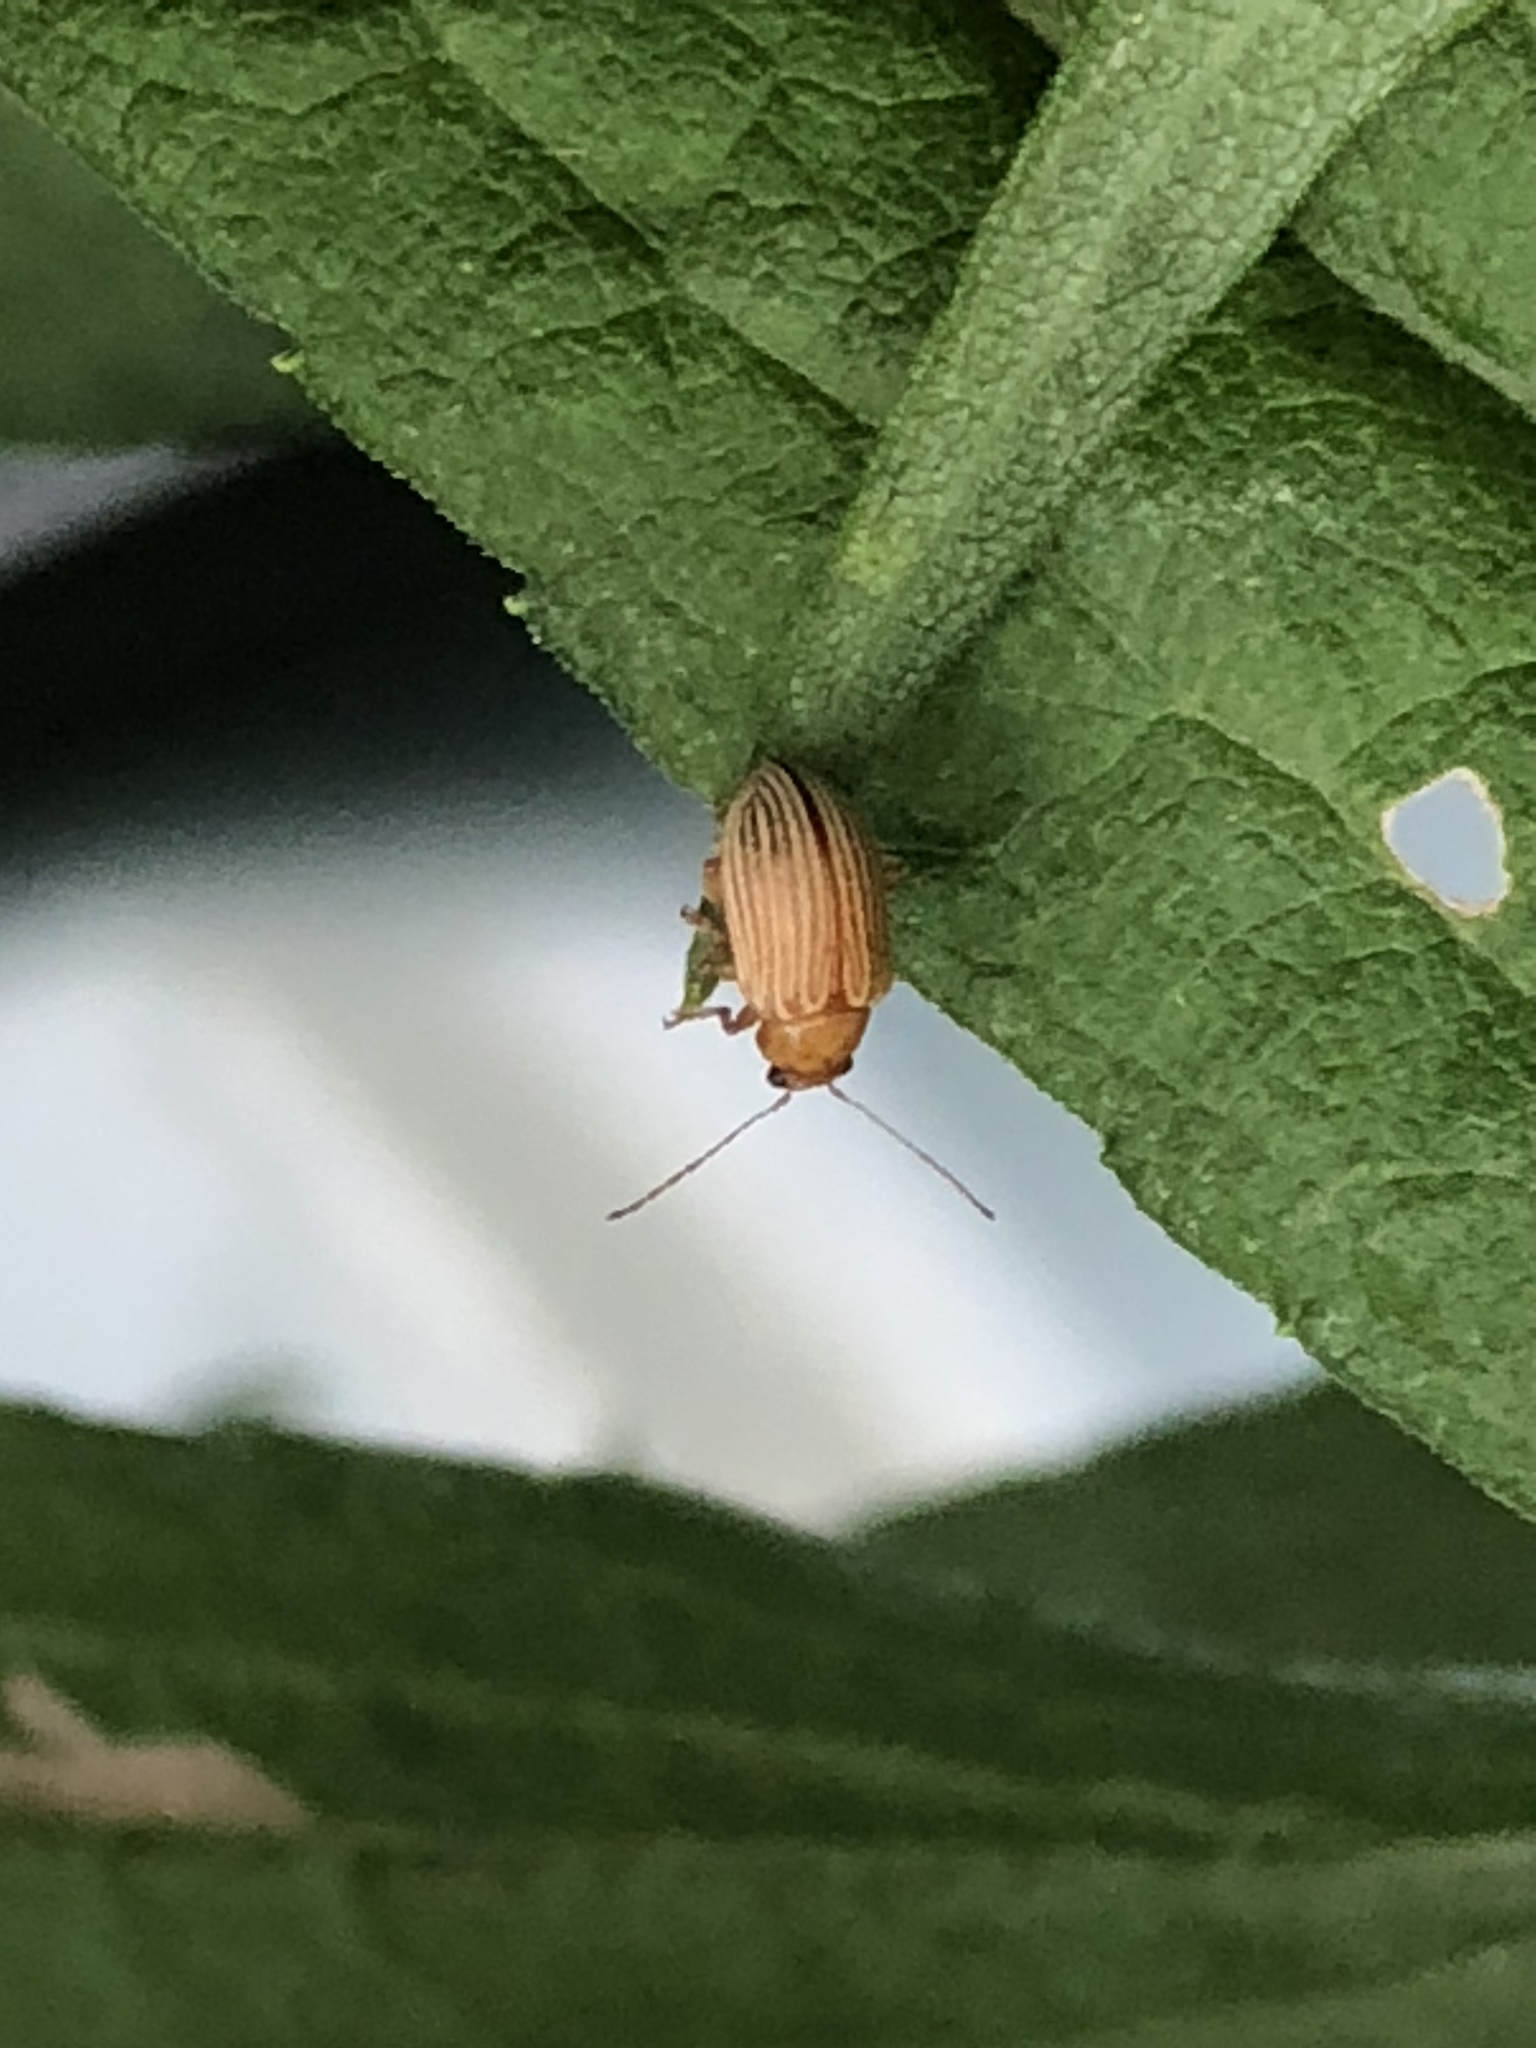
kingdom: Animalia
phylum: Arthropoda
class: Insecta
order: Coleoptera
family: Chrysomelidae
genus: Colaspis
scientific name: Colaspis brunnea
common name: Grape colaspis
